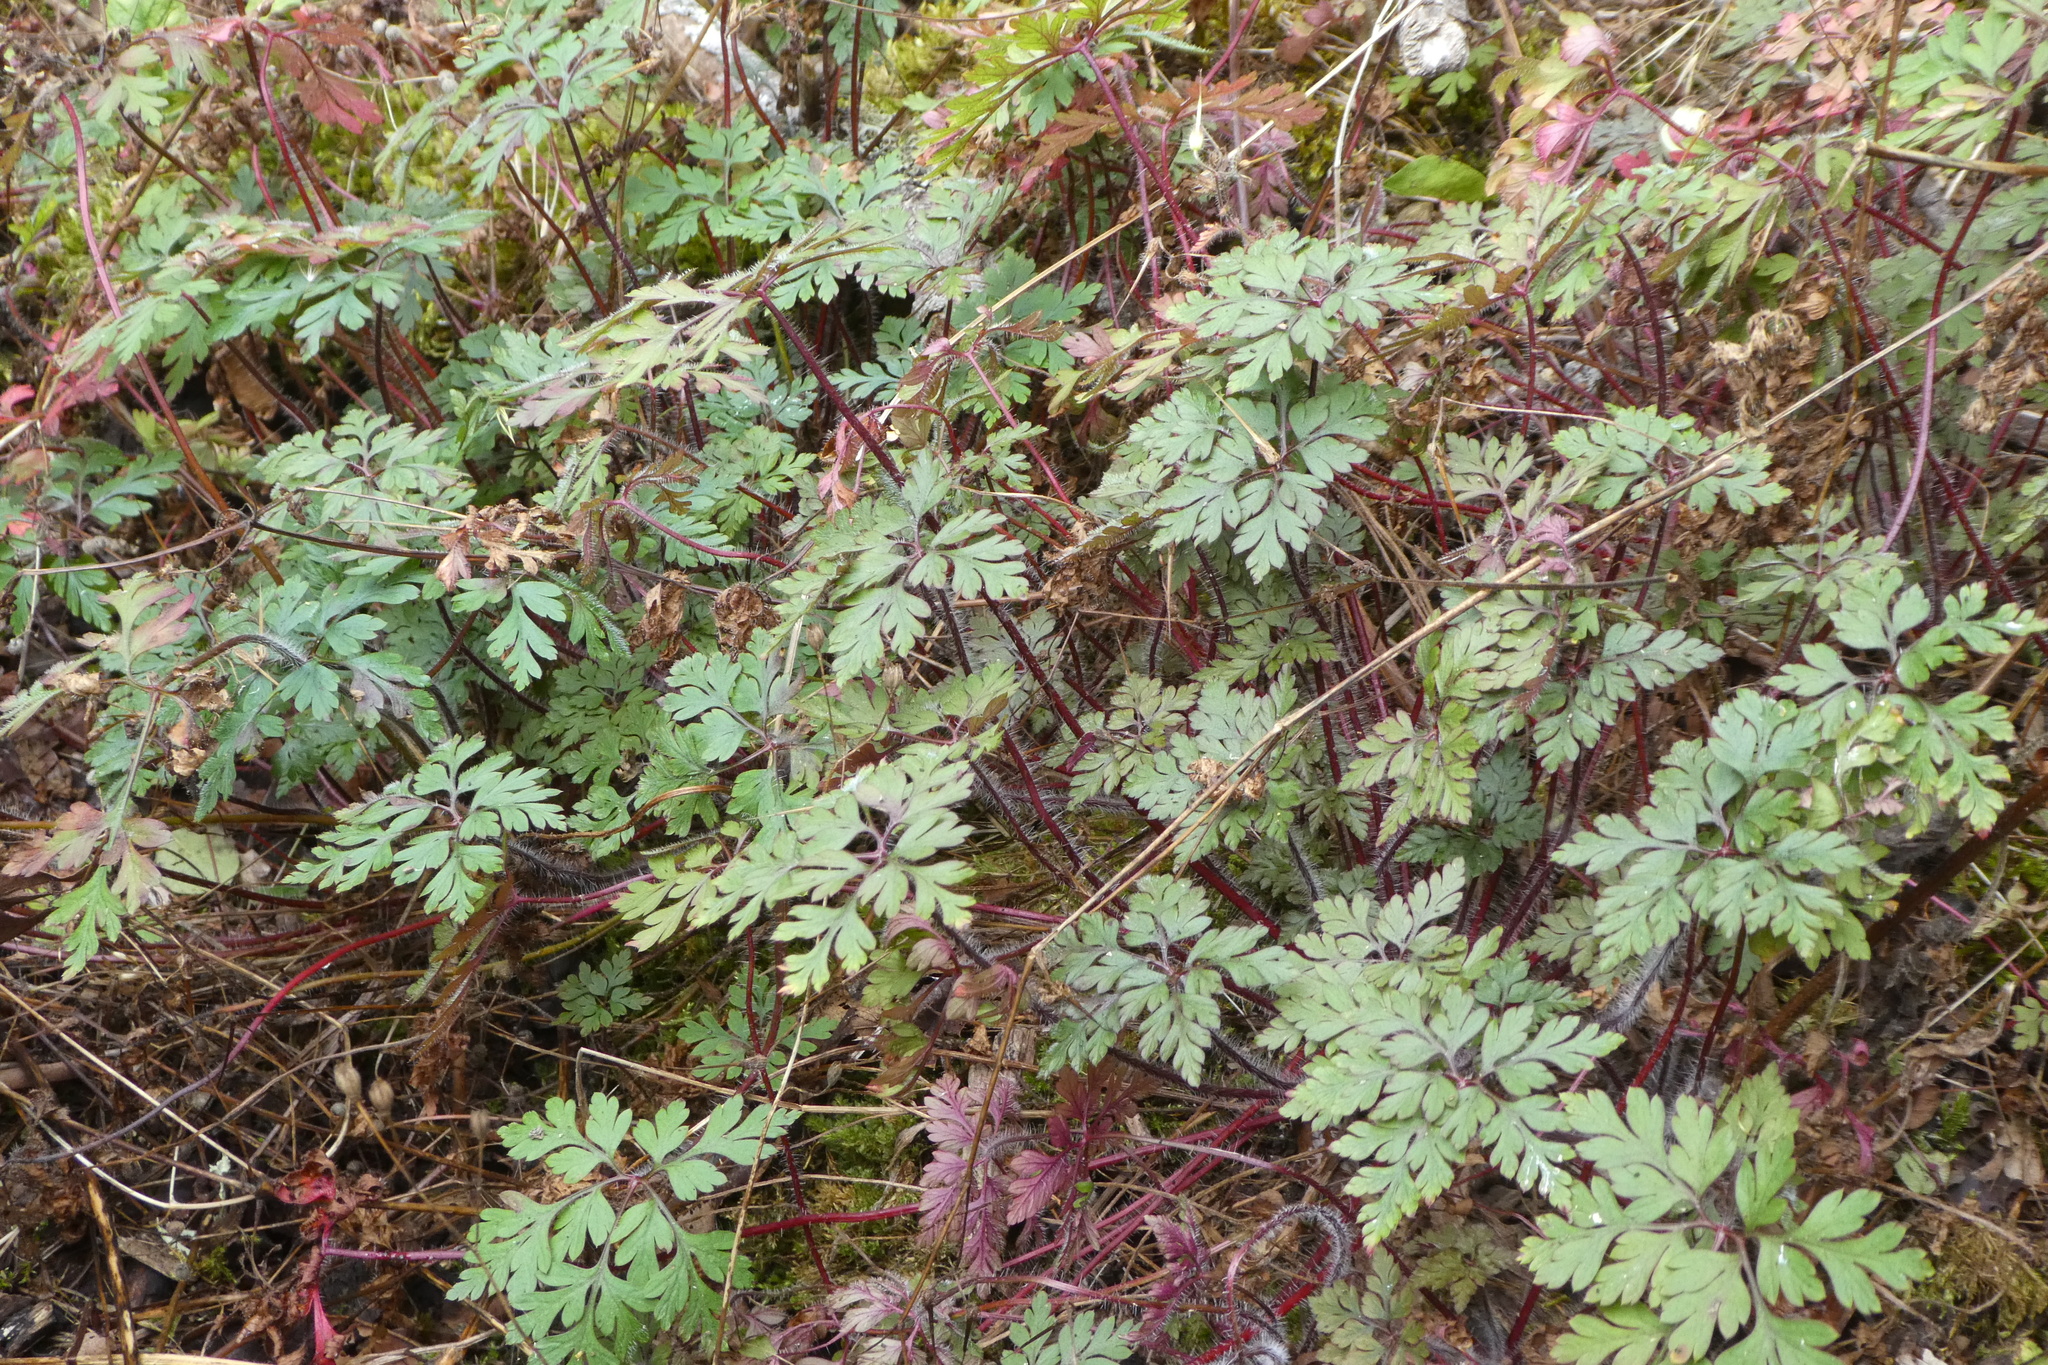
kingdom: Plantae
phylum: Tracheophyta
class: Magnoliopsida
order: Geraniales
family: Geraniaceae
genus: Geranium
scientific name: Geranium robertianum
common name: Herb-robert
